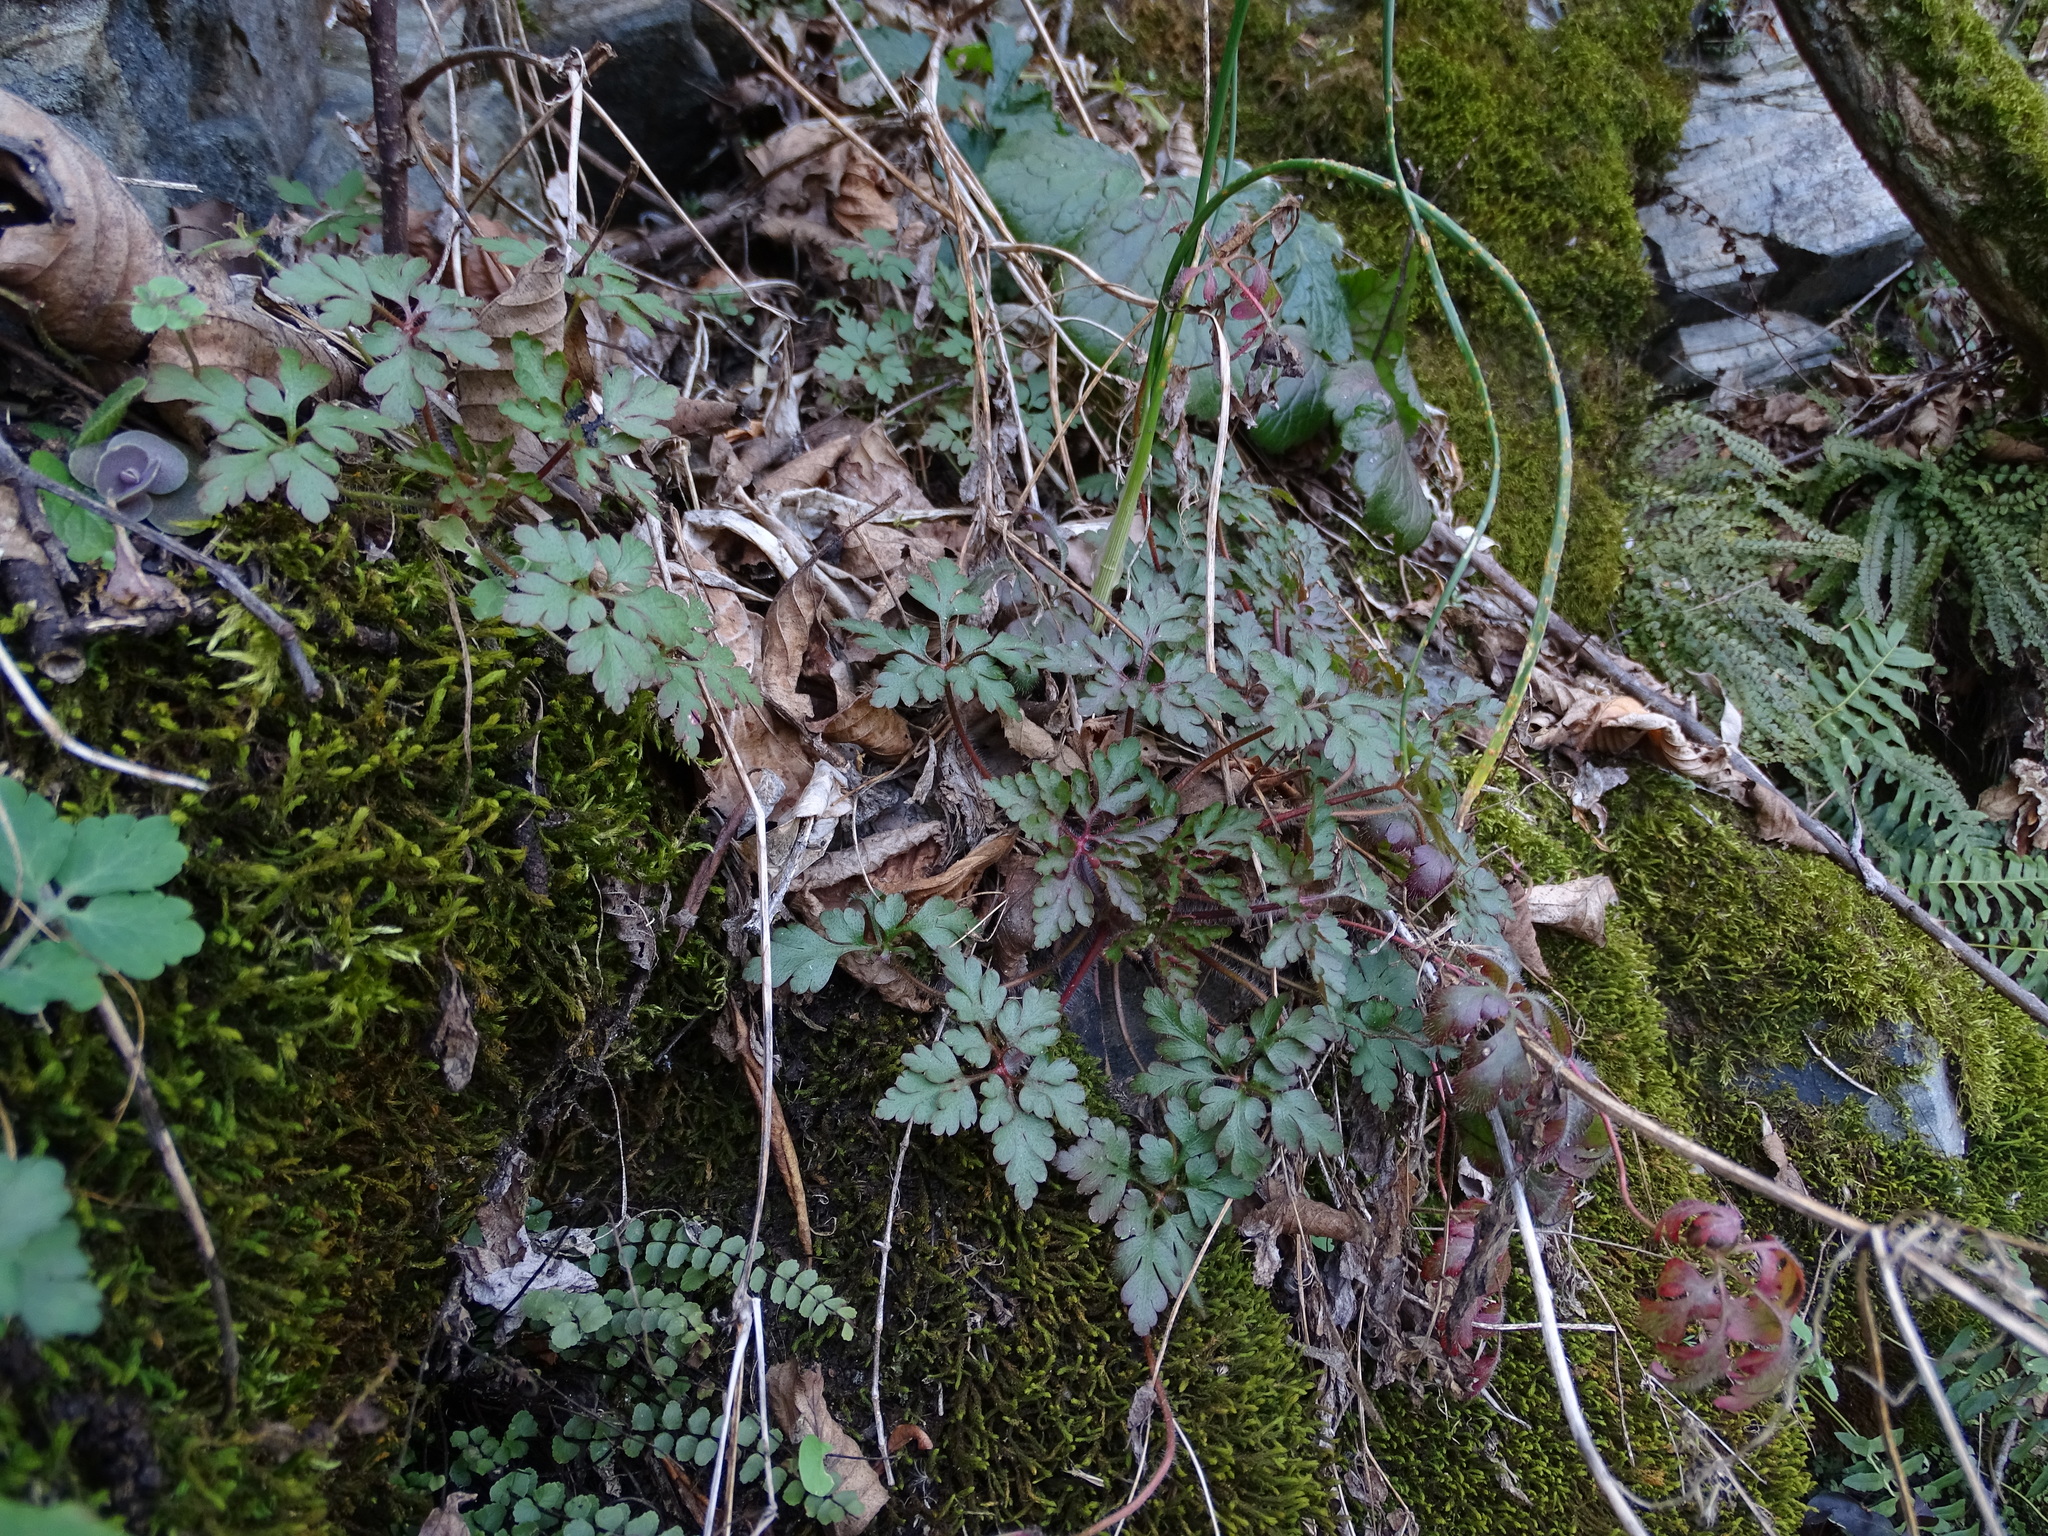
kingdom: Plantae
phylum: Tracheophyta
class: Magnoliopsida
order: Geraniales
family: Geraniaceae
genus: Geranium
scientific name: Geranium robertianum
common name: Herb-robert
